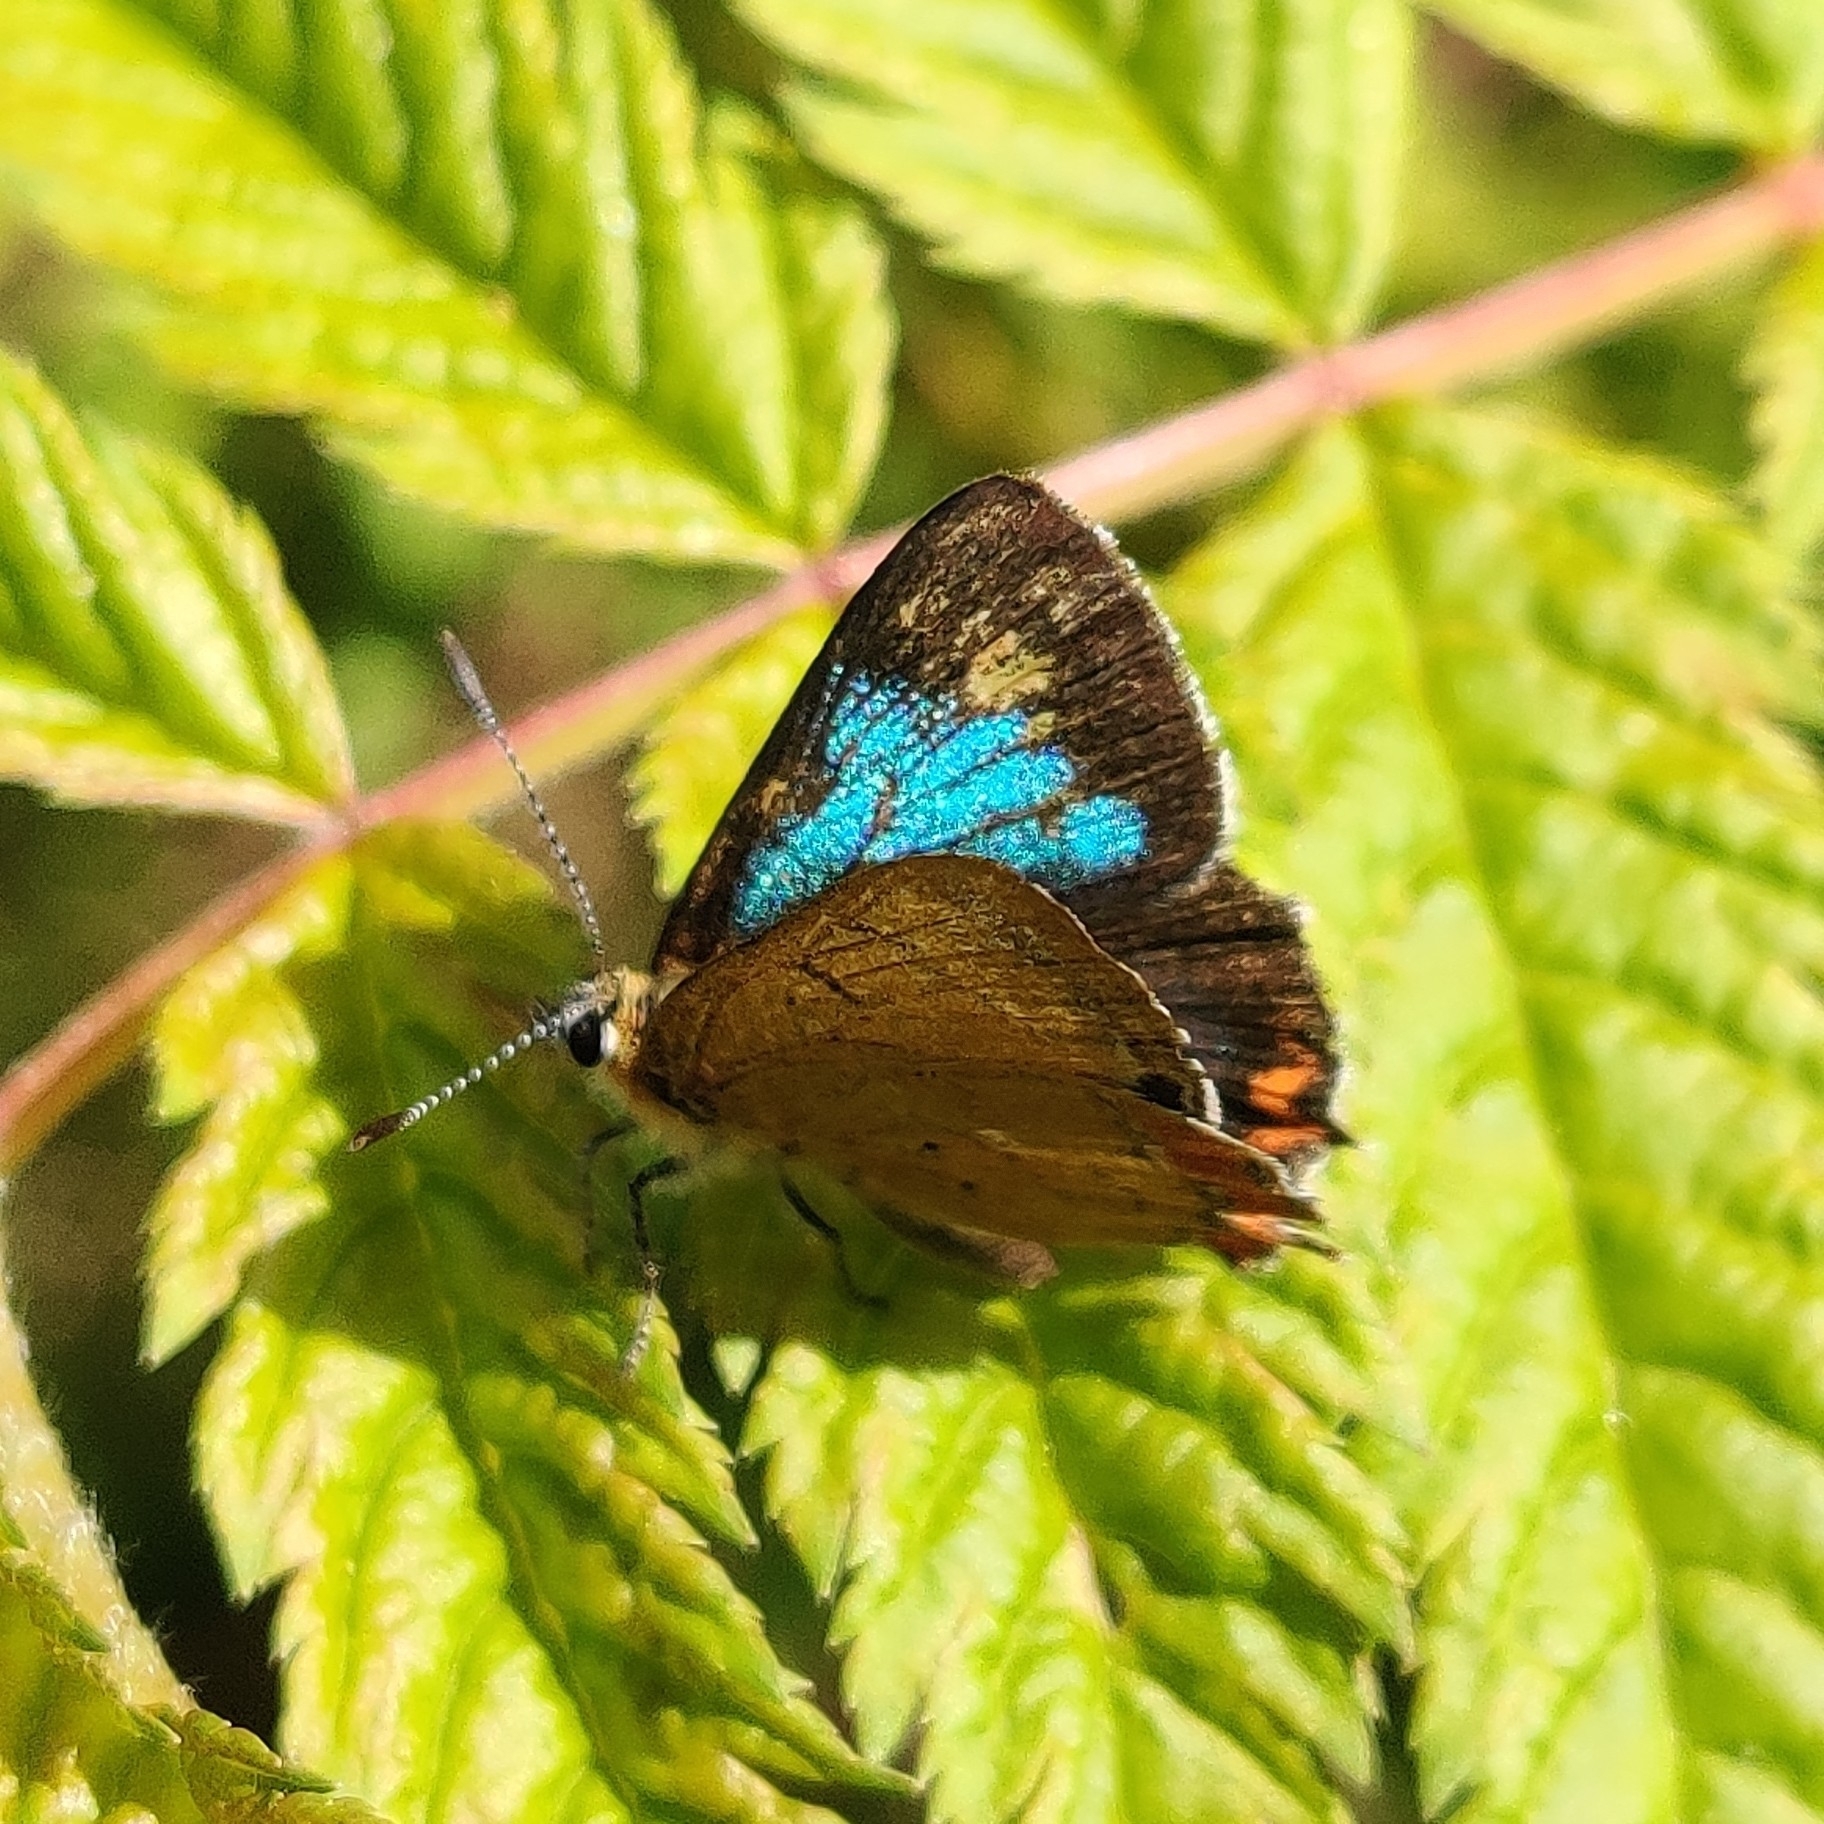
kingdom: Animalia
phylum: Arthropoda
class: Insecta
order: Lepidoptera
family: Lycaenidae
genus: Heliophorus
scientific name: Heliophorus
